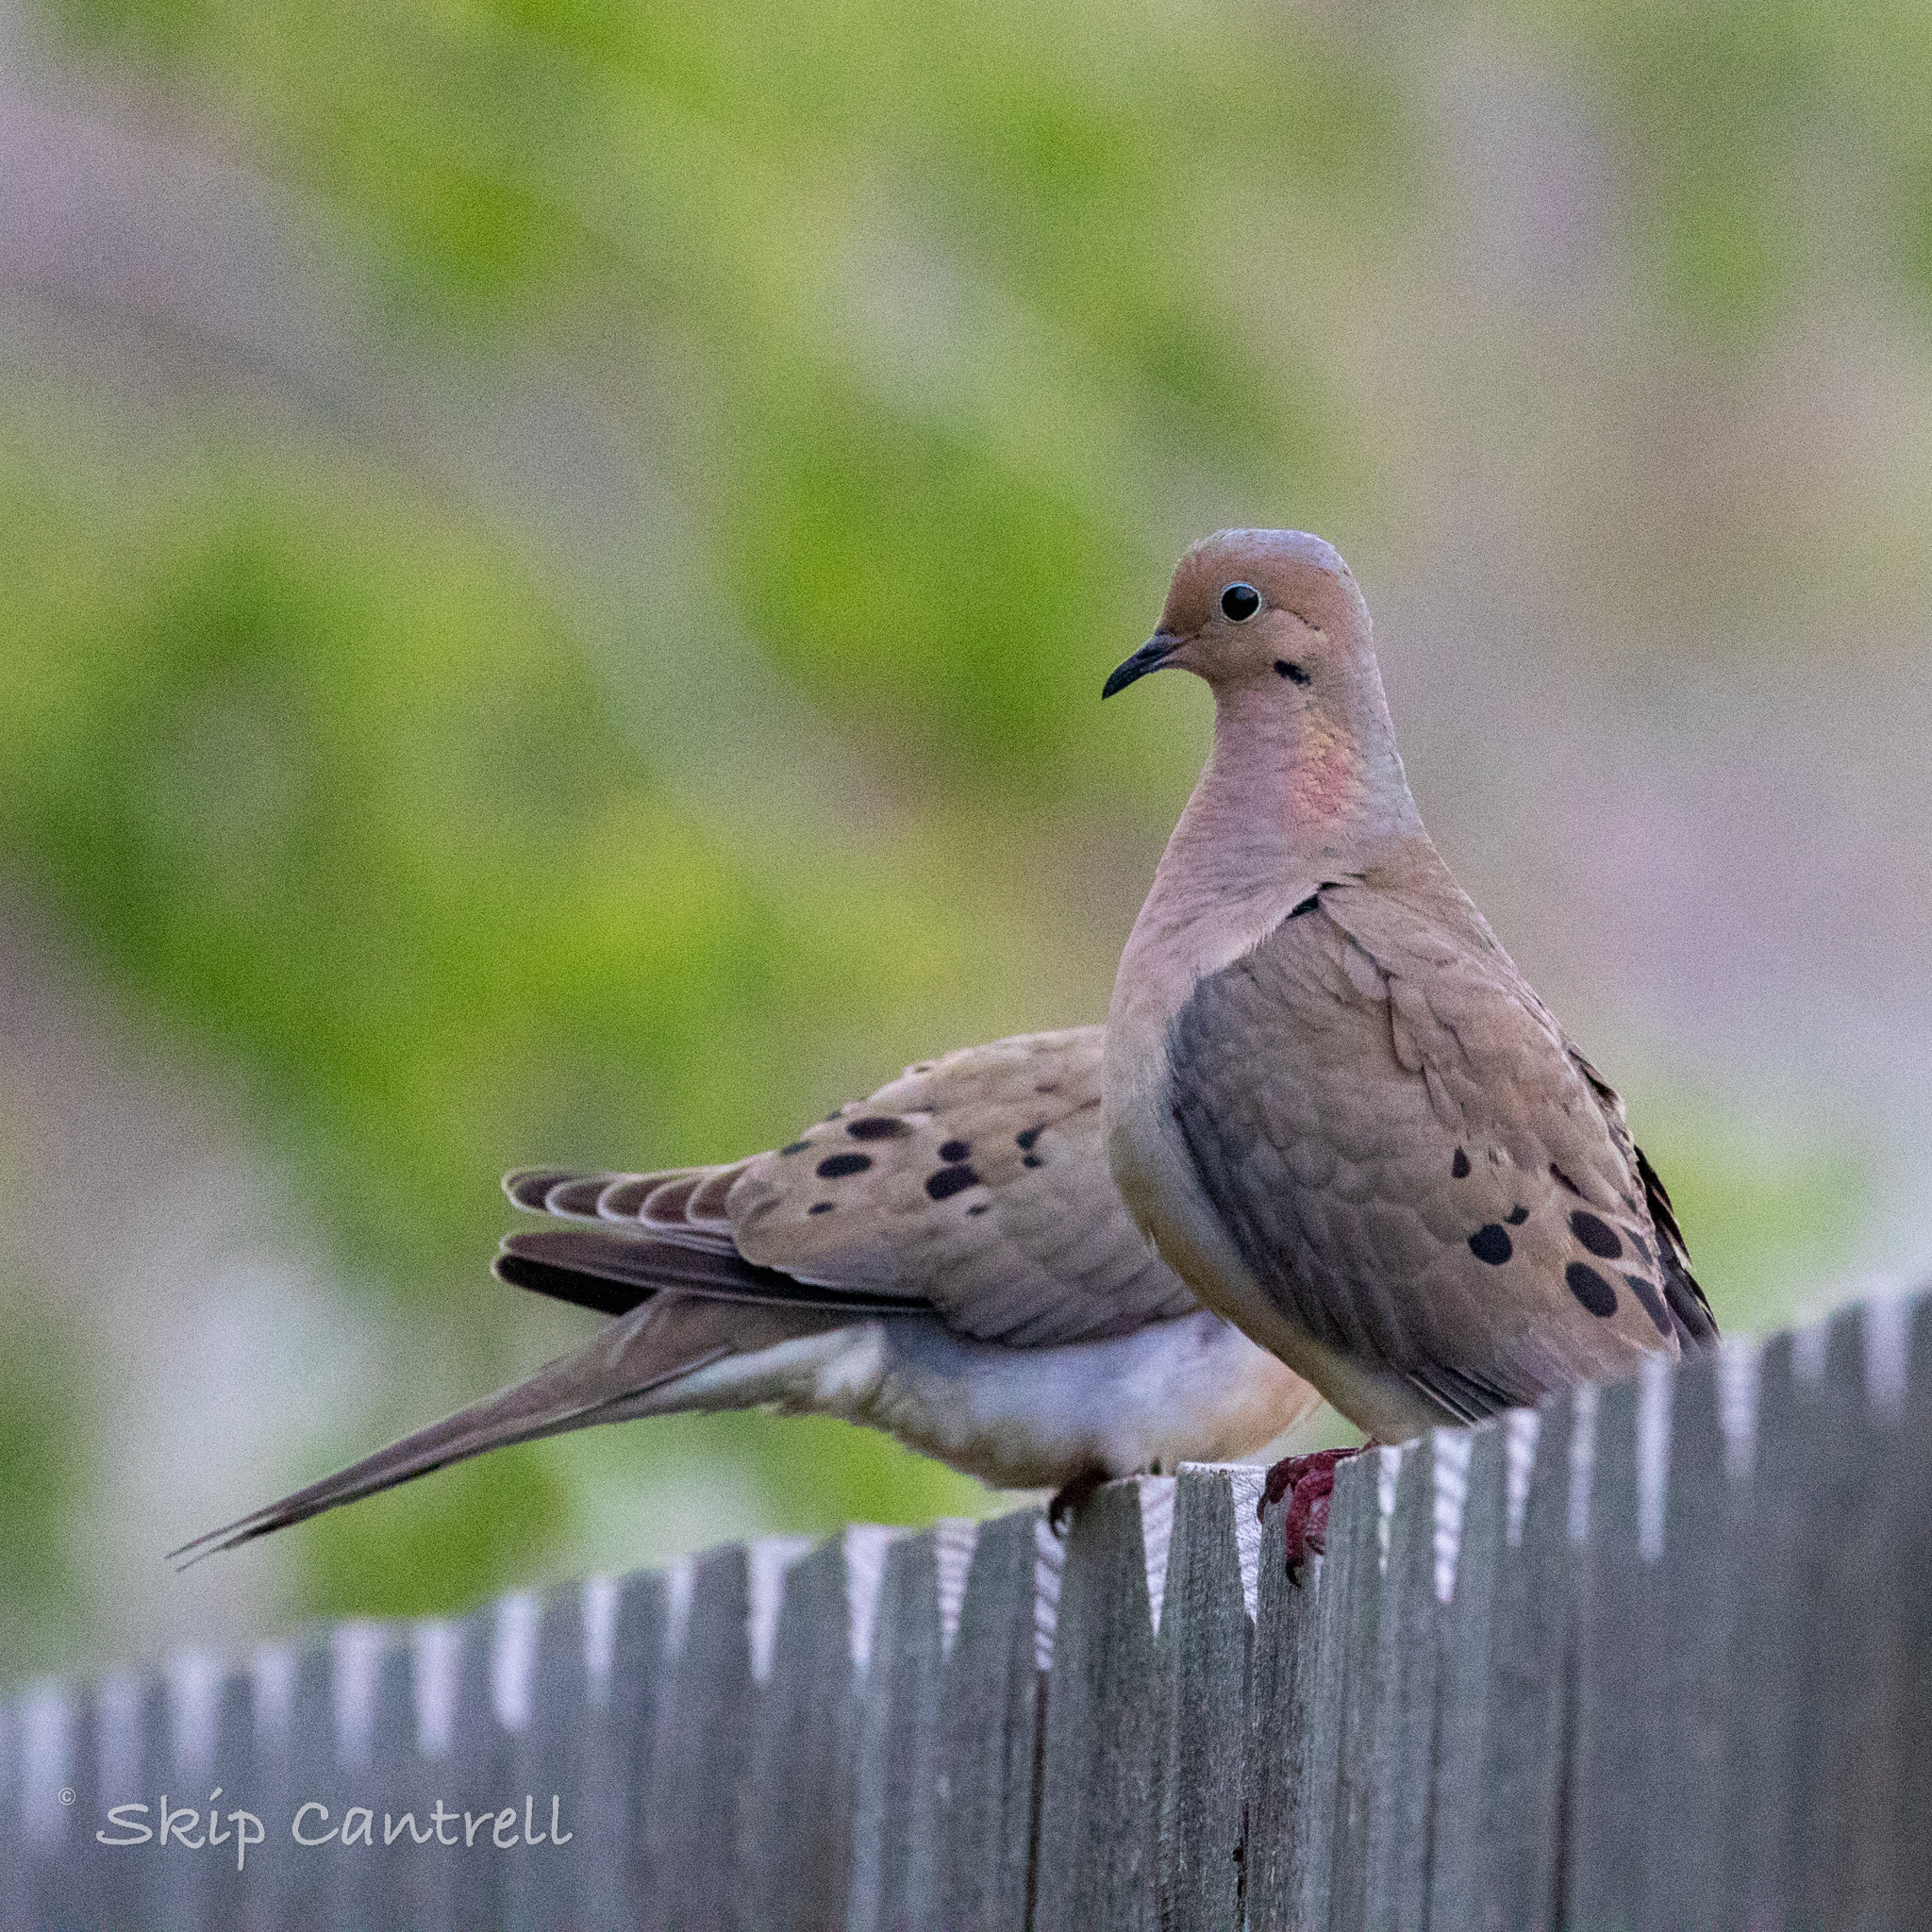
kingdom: Animalia
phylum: Chordata
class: Aves
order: Columbiformes
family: Columbidae
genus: Zenaida
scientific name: Zenaida macroura
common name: Mourning dove
